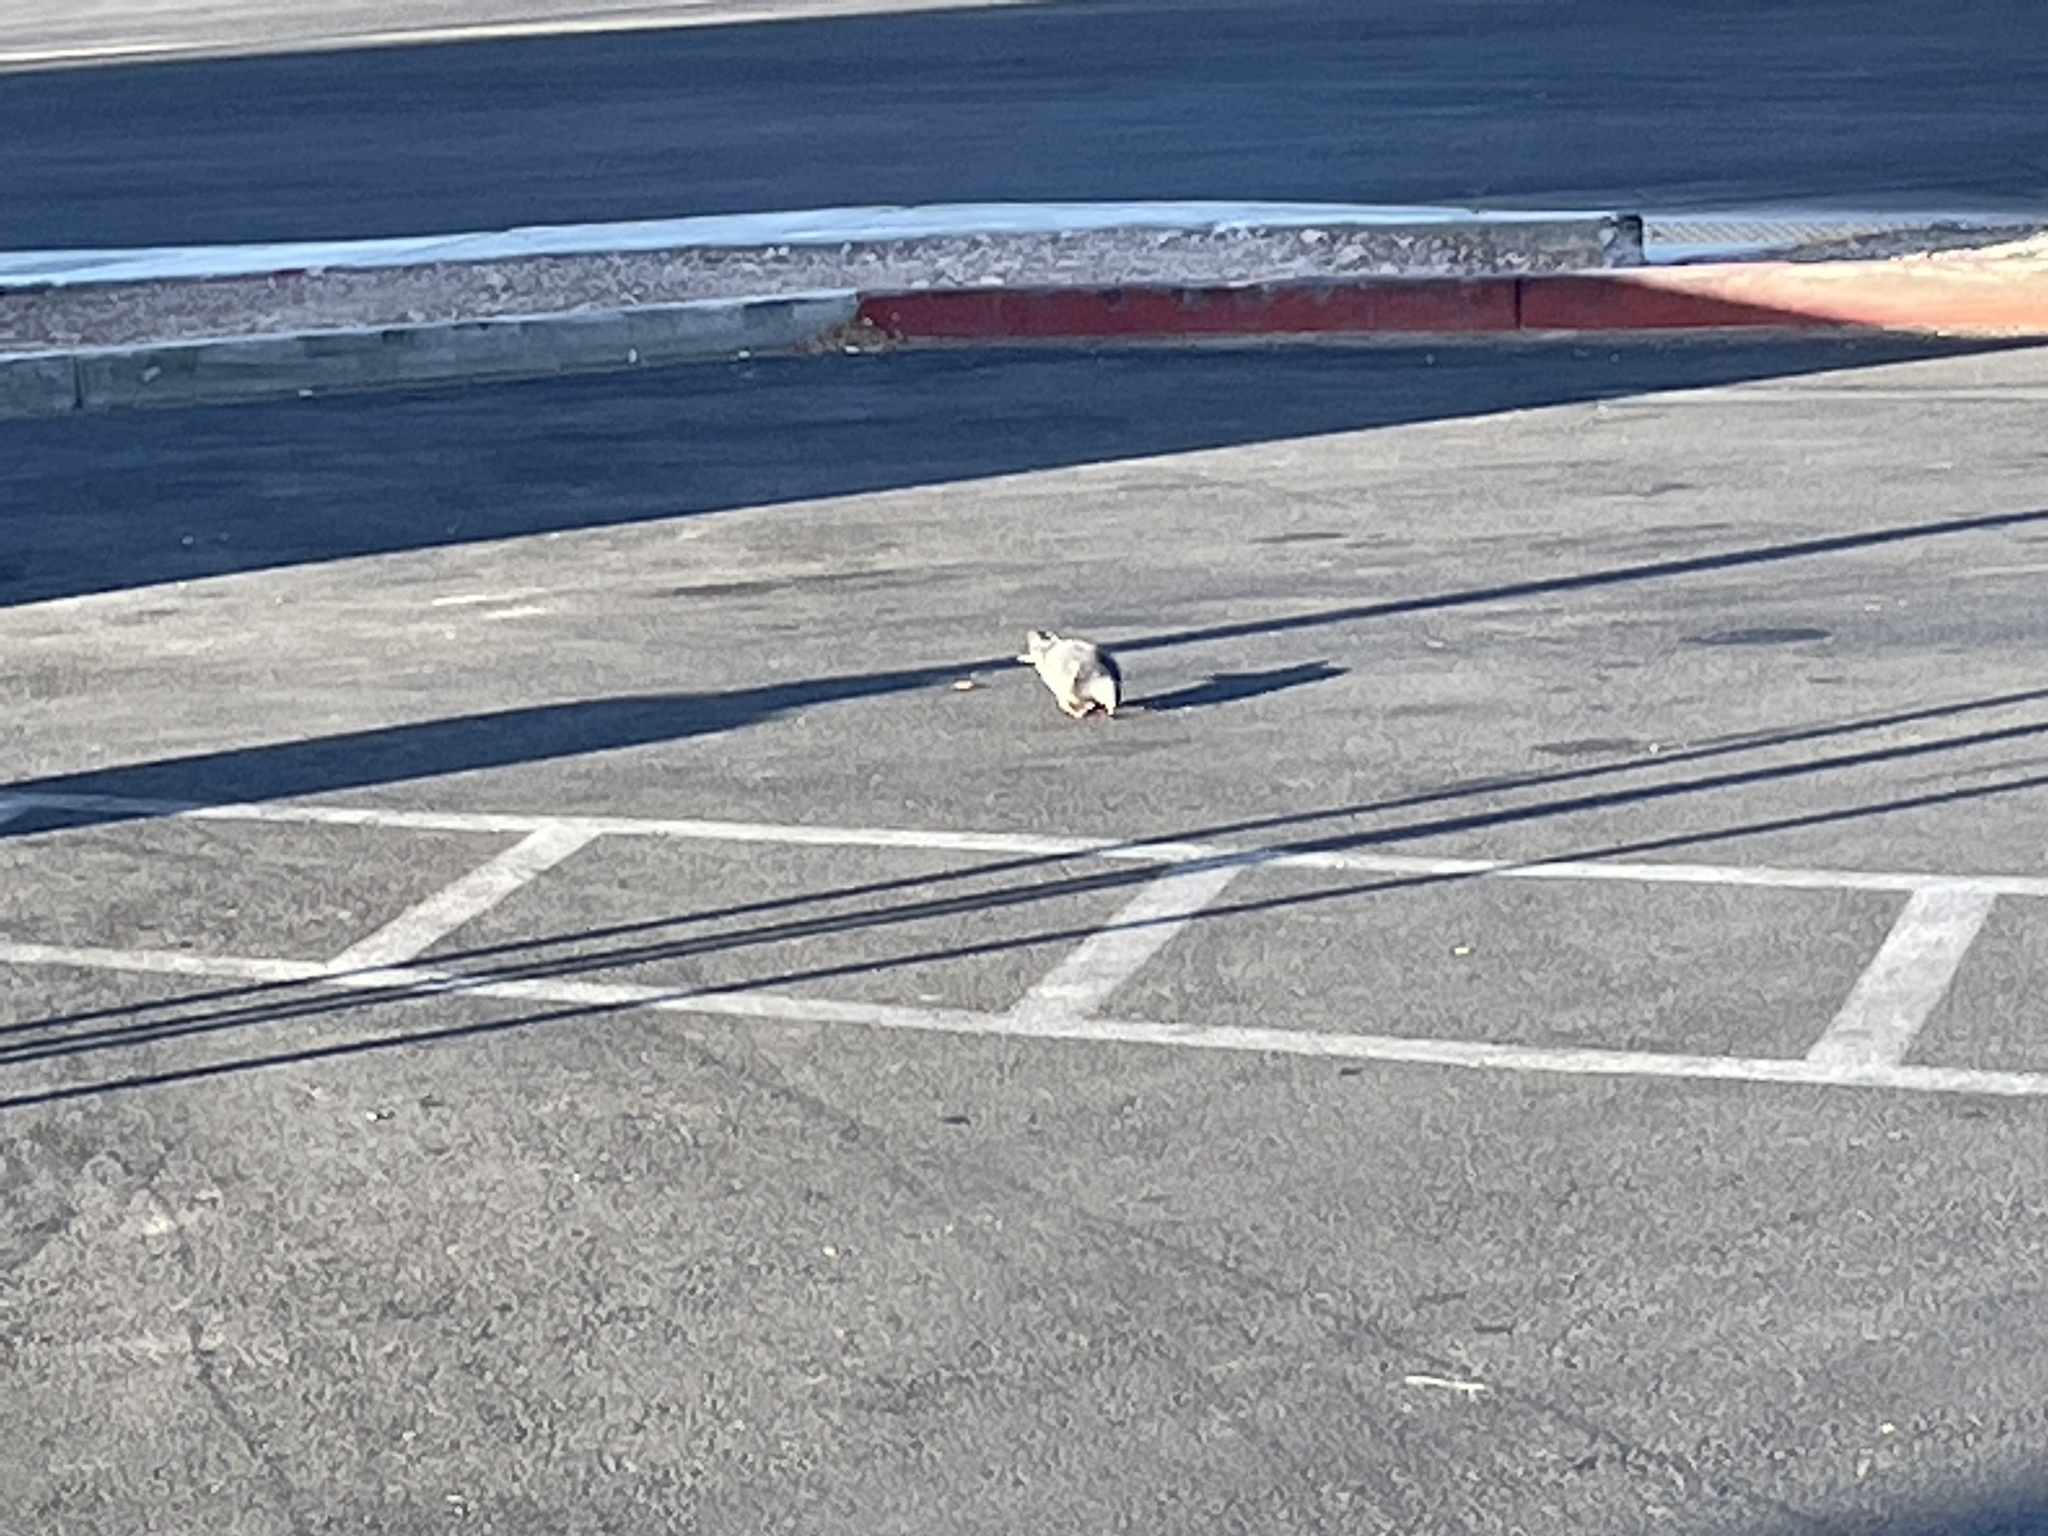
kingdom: Animalia
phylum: Chordata
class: Aves
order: Columbiformes
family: Columbidae
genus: Columba
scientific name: Columba livia
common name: Rock pigeon
